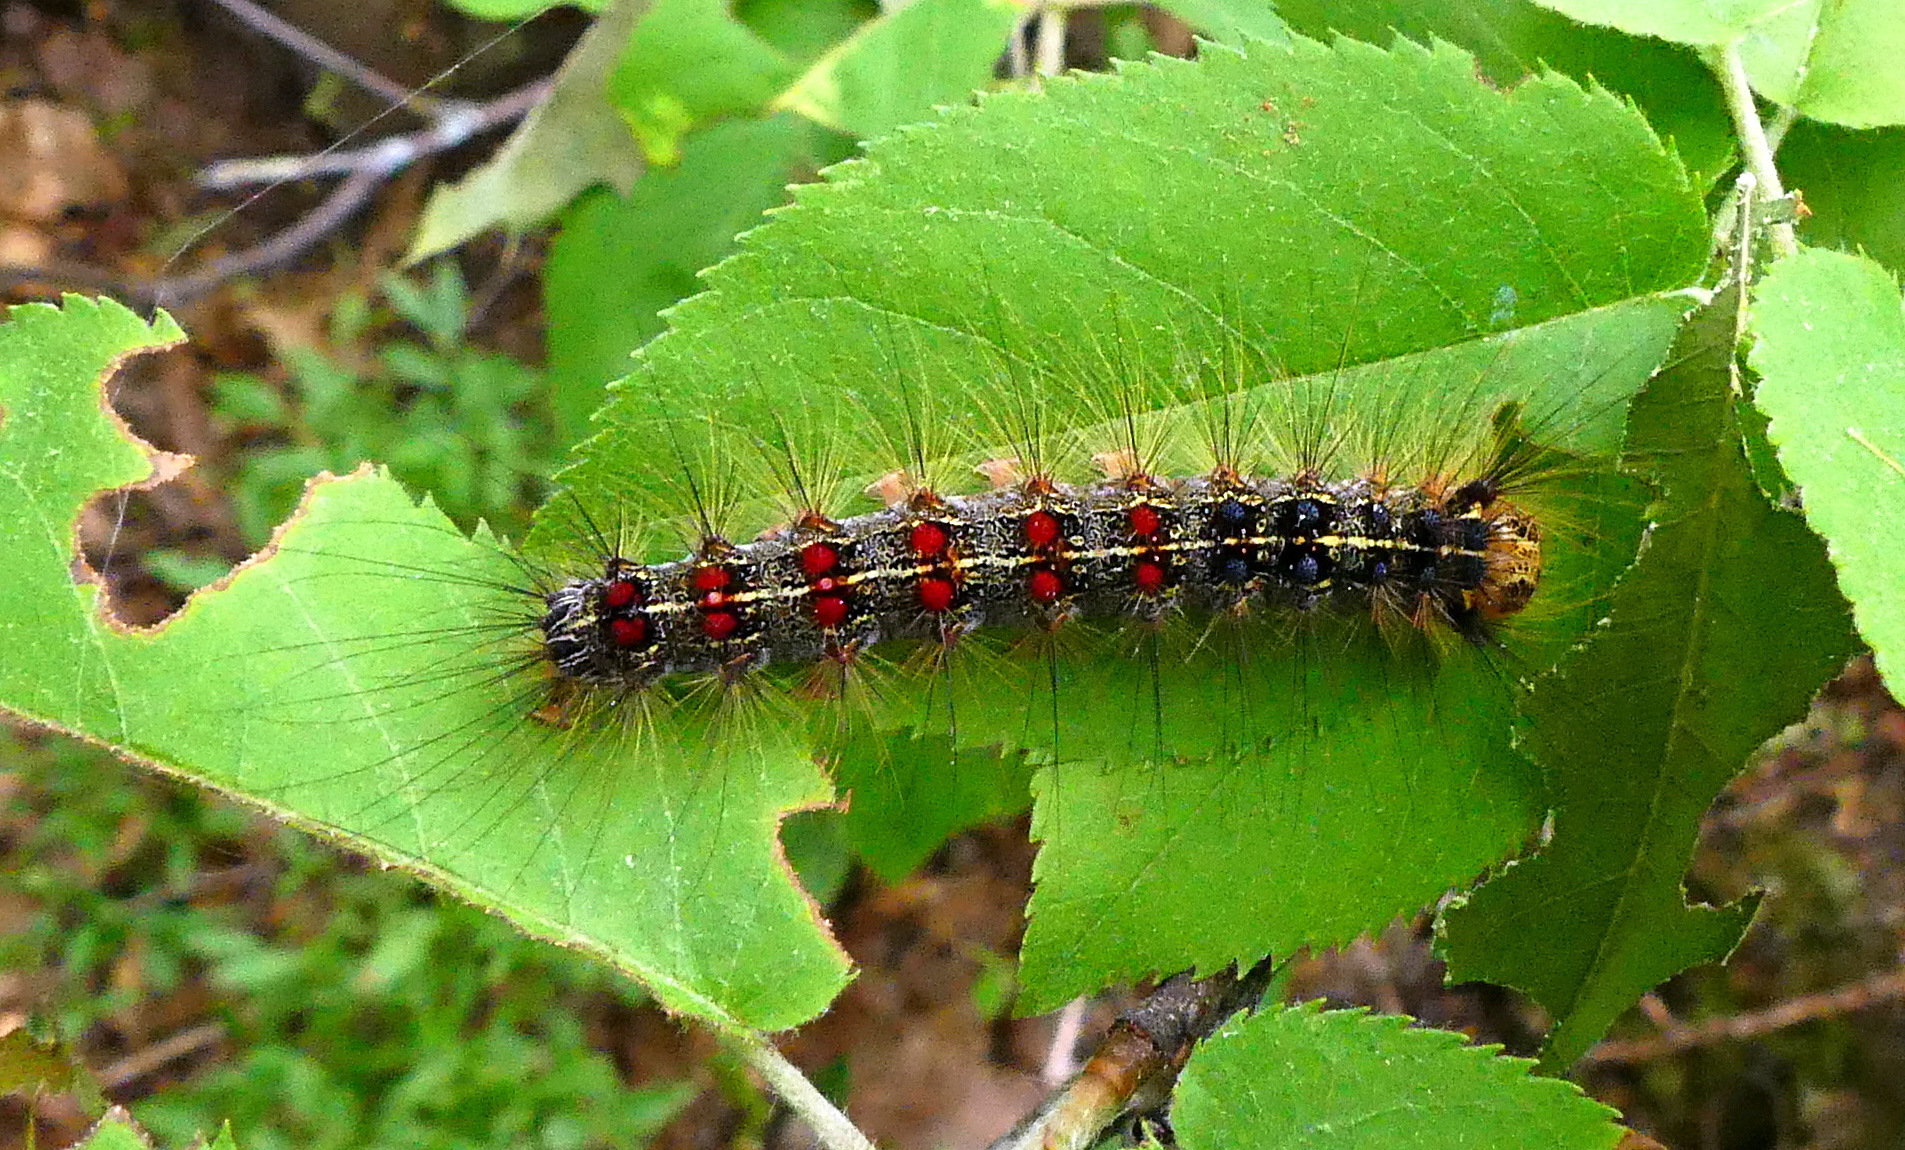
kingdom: Animalia
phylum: Arthropoda
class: Insecta
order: Lepidoptera
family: Erebidae
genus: Lymantria
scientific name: Lymantria dispar
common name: Gypsy moth
